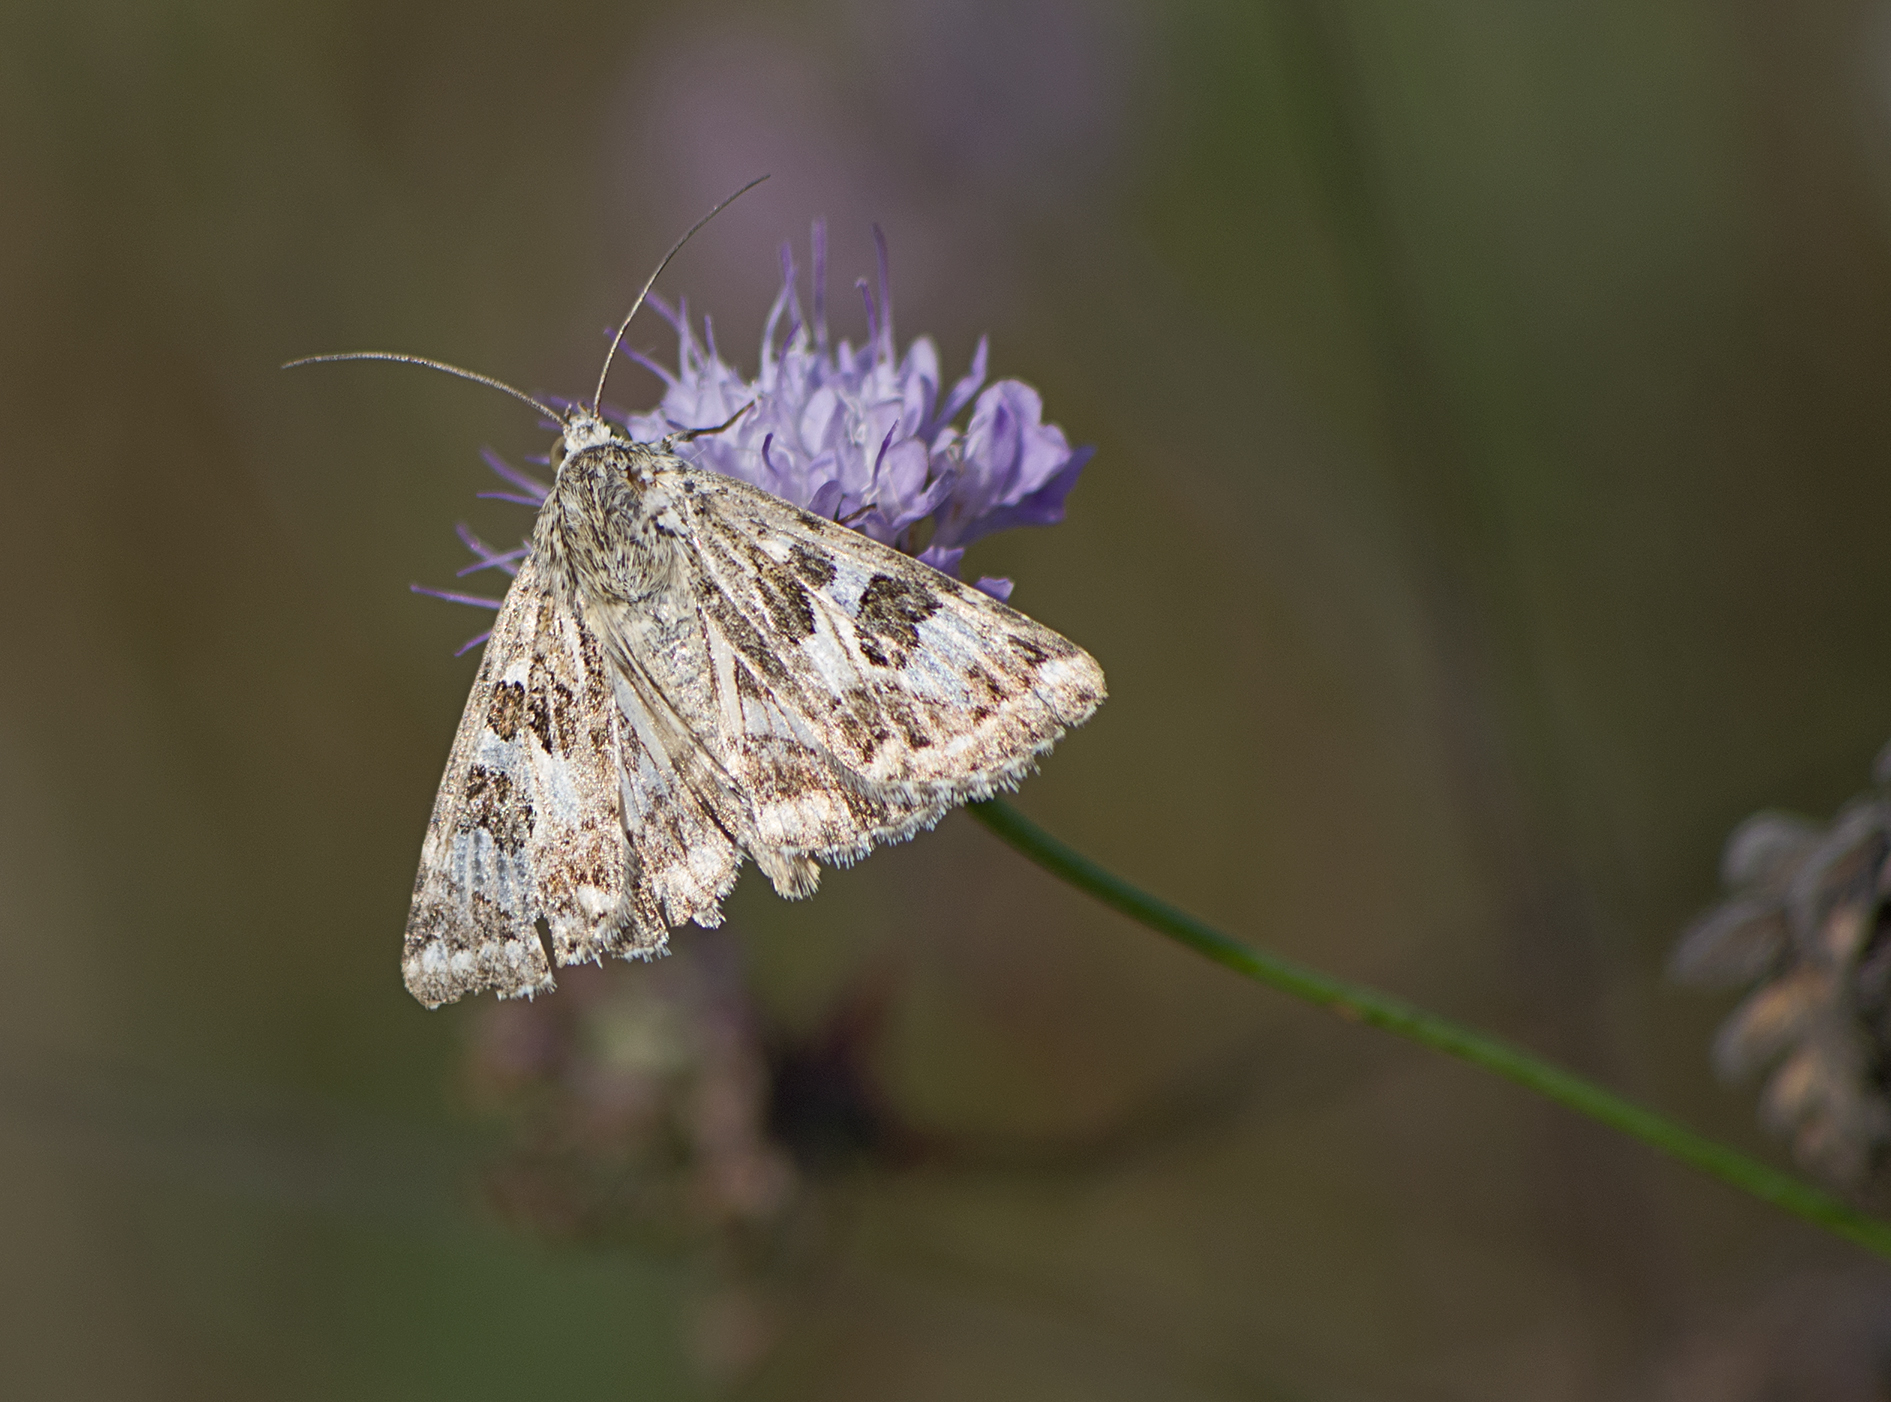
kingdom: Animalia
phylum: Arthropoda
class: Insecta
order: Lepidoptera
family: Noctuidae
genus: Protoschinia
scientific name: Protoschinia scutosa
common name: Spotted clover
